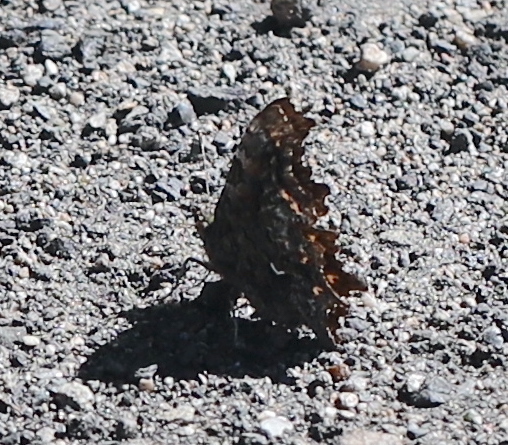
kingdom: Animalia
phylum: Arthropoda
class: Insecta
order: Lepidoptera
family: Nymphalidae
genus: Polygonia
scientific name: Polygonia faunus
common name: Green comma
